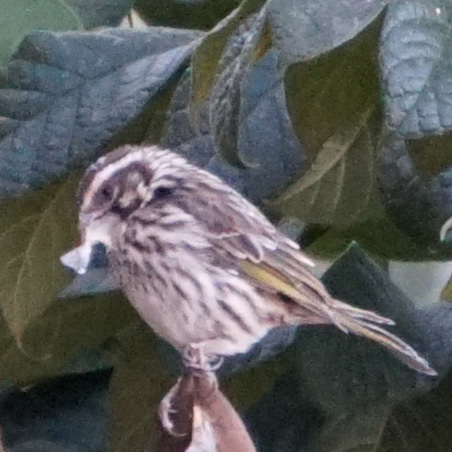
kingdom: Animalia
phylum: Chordata
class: Aves
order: Passeriformes
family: Fringillidae
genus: Crithagra
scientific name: Crithagra striolata
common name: Streaky seedeater
